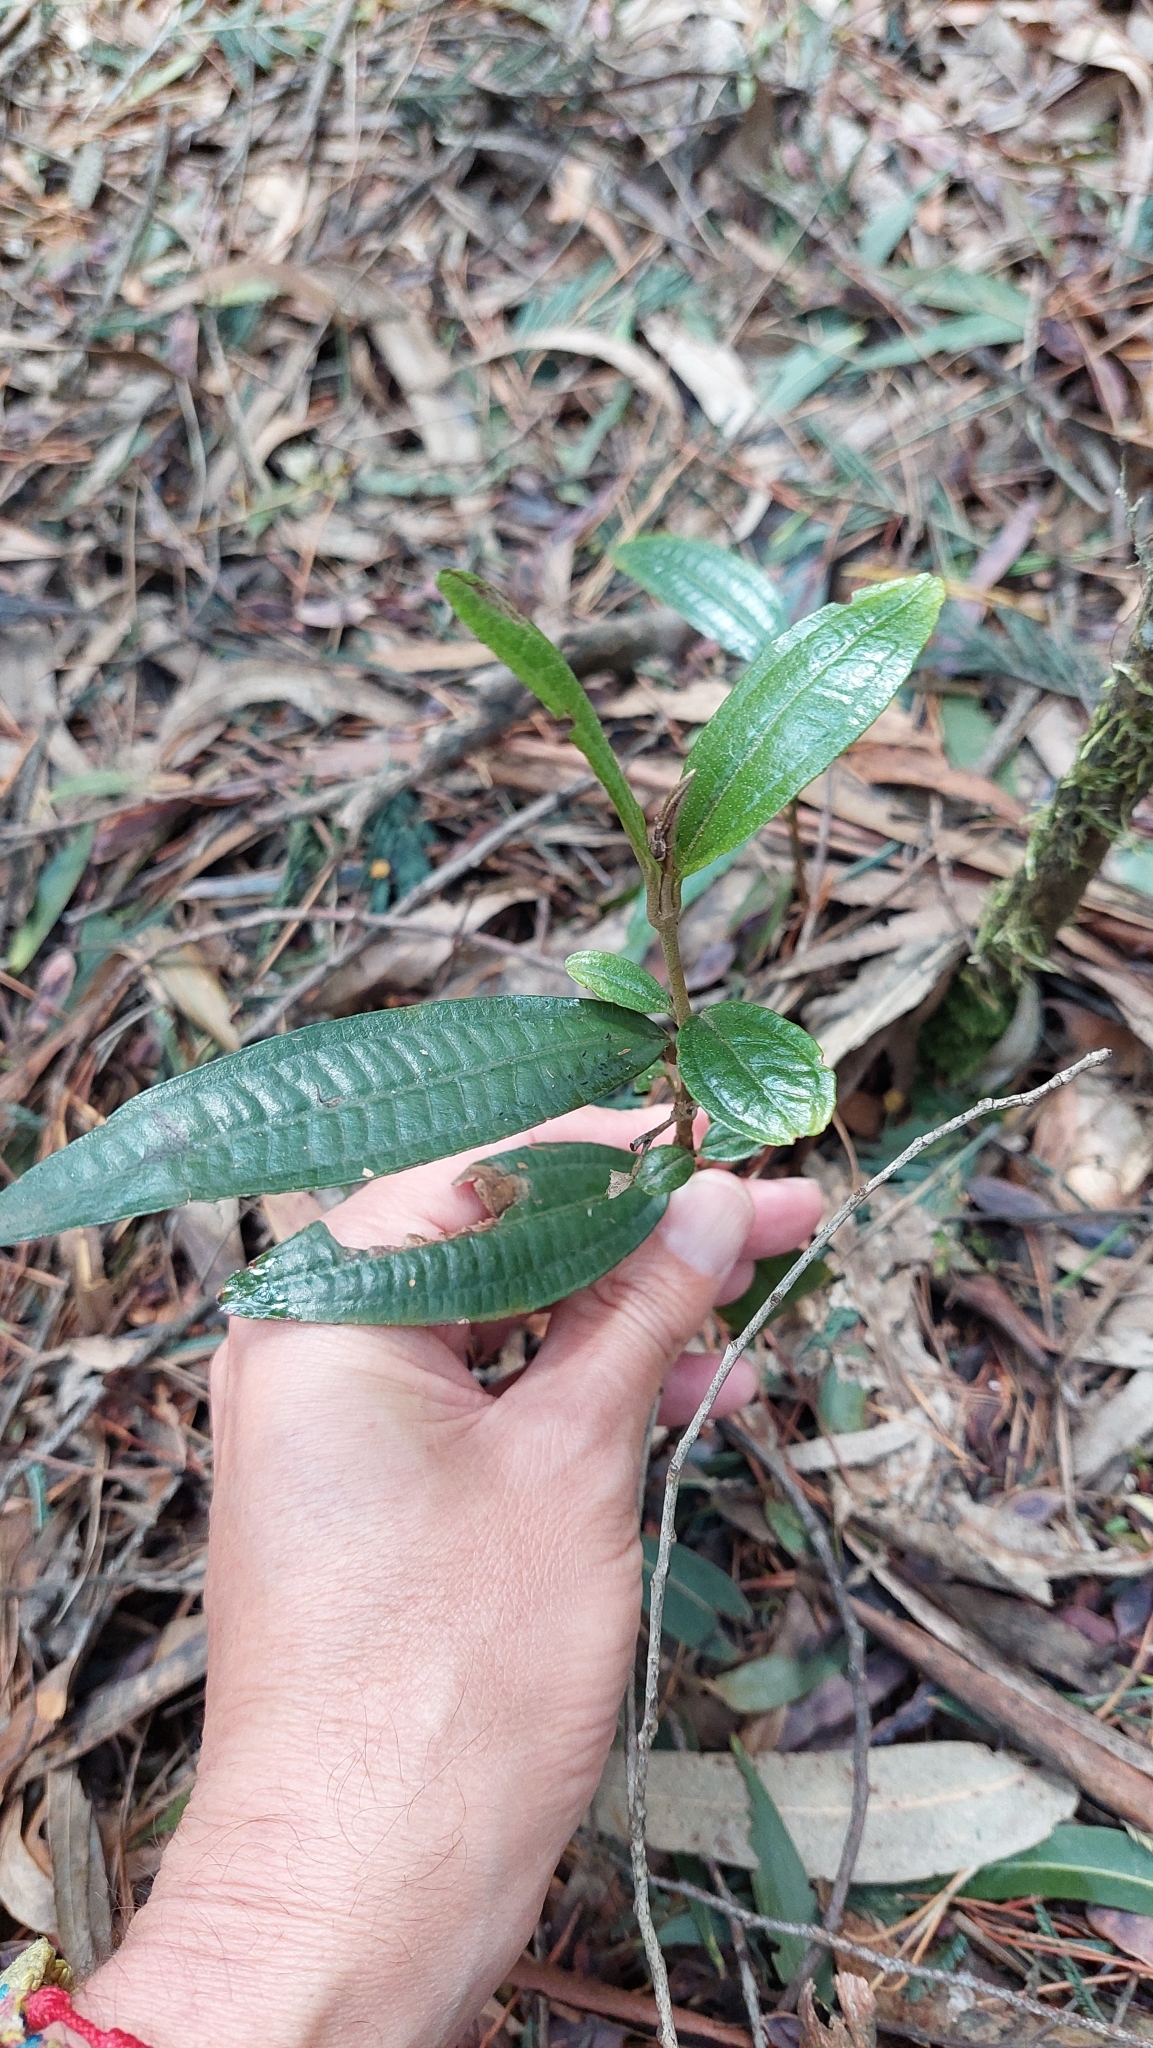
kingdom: Plantae
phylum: Tracheophyta
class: Magnoliopsida
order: Myrtales
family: Melastomataceae
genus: Miconia
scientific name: Miconia squamulosa
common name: Squamulose maya
